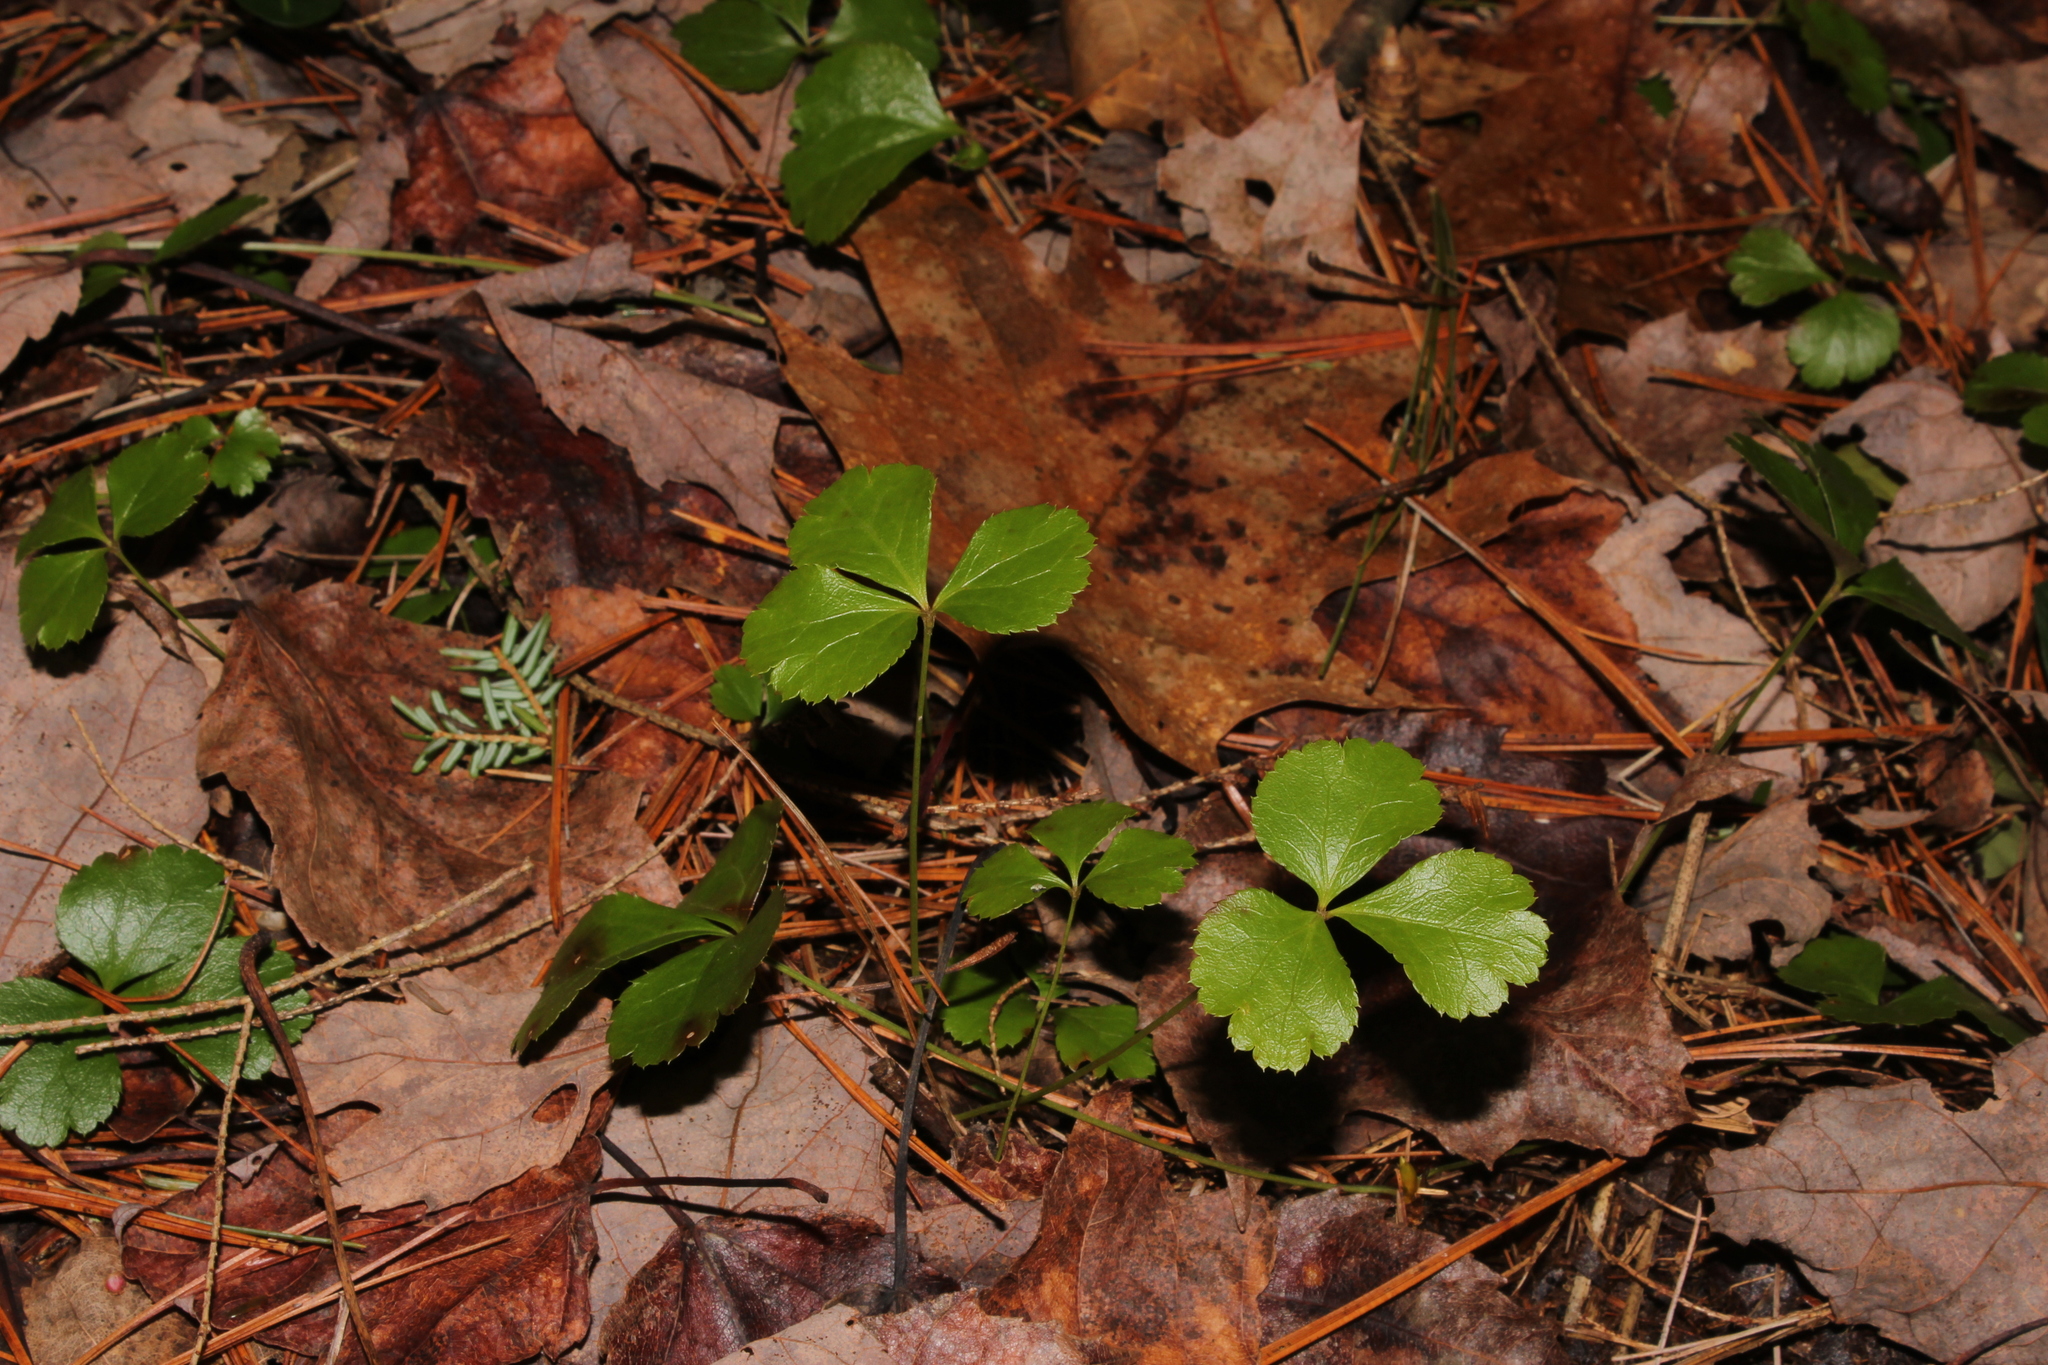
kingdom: Plantae
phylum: Tracheophyta
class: Magnoliopsida
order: Ranunculales
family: Ranunculaceae
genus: Coptis
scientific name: Coptis trifolia
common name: Canker-root
